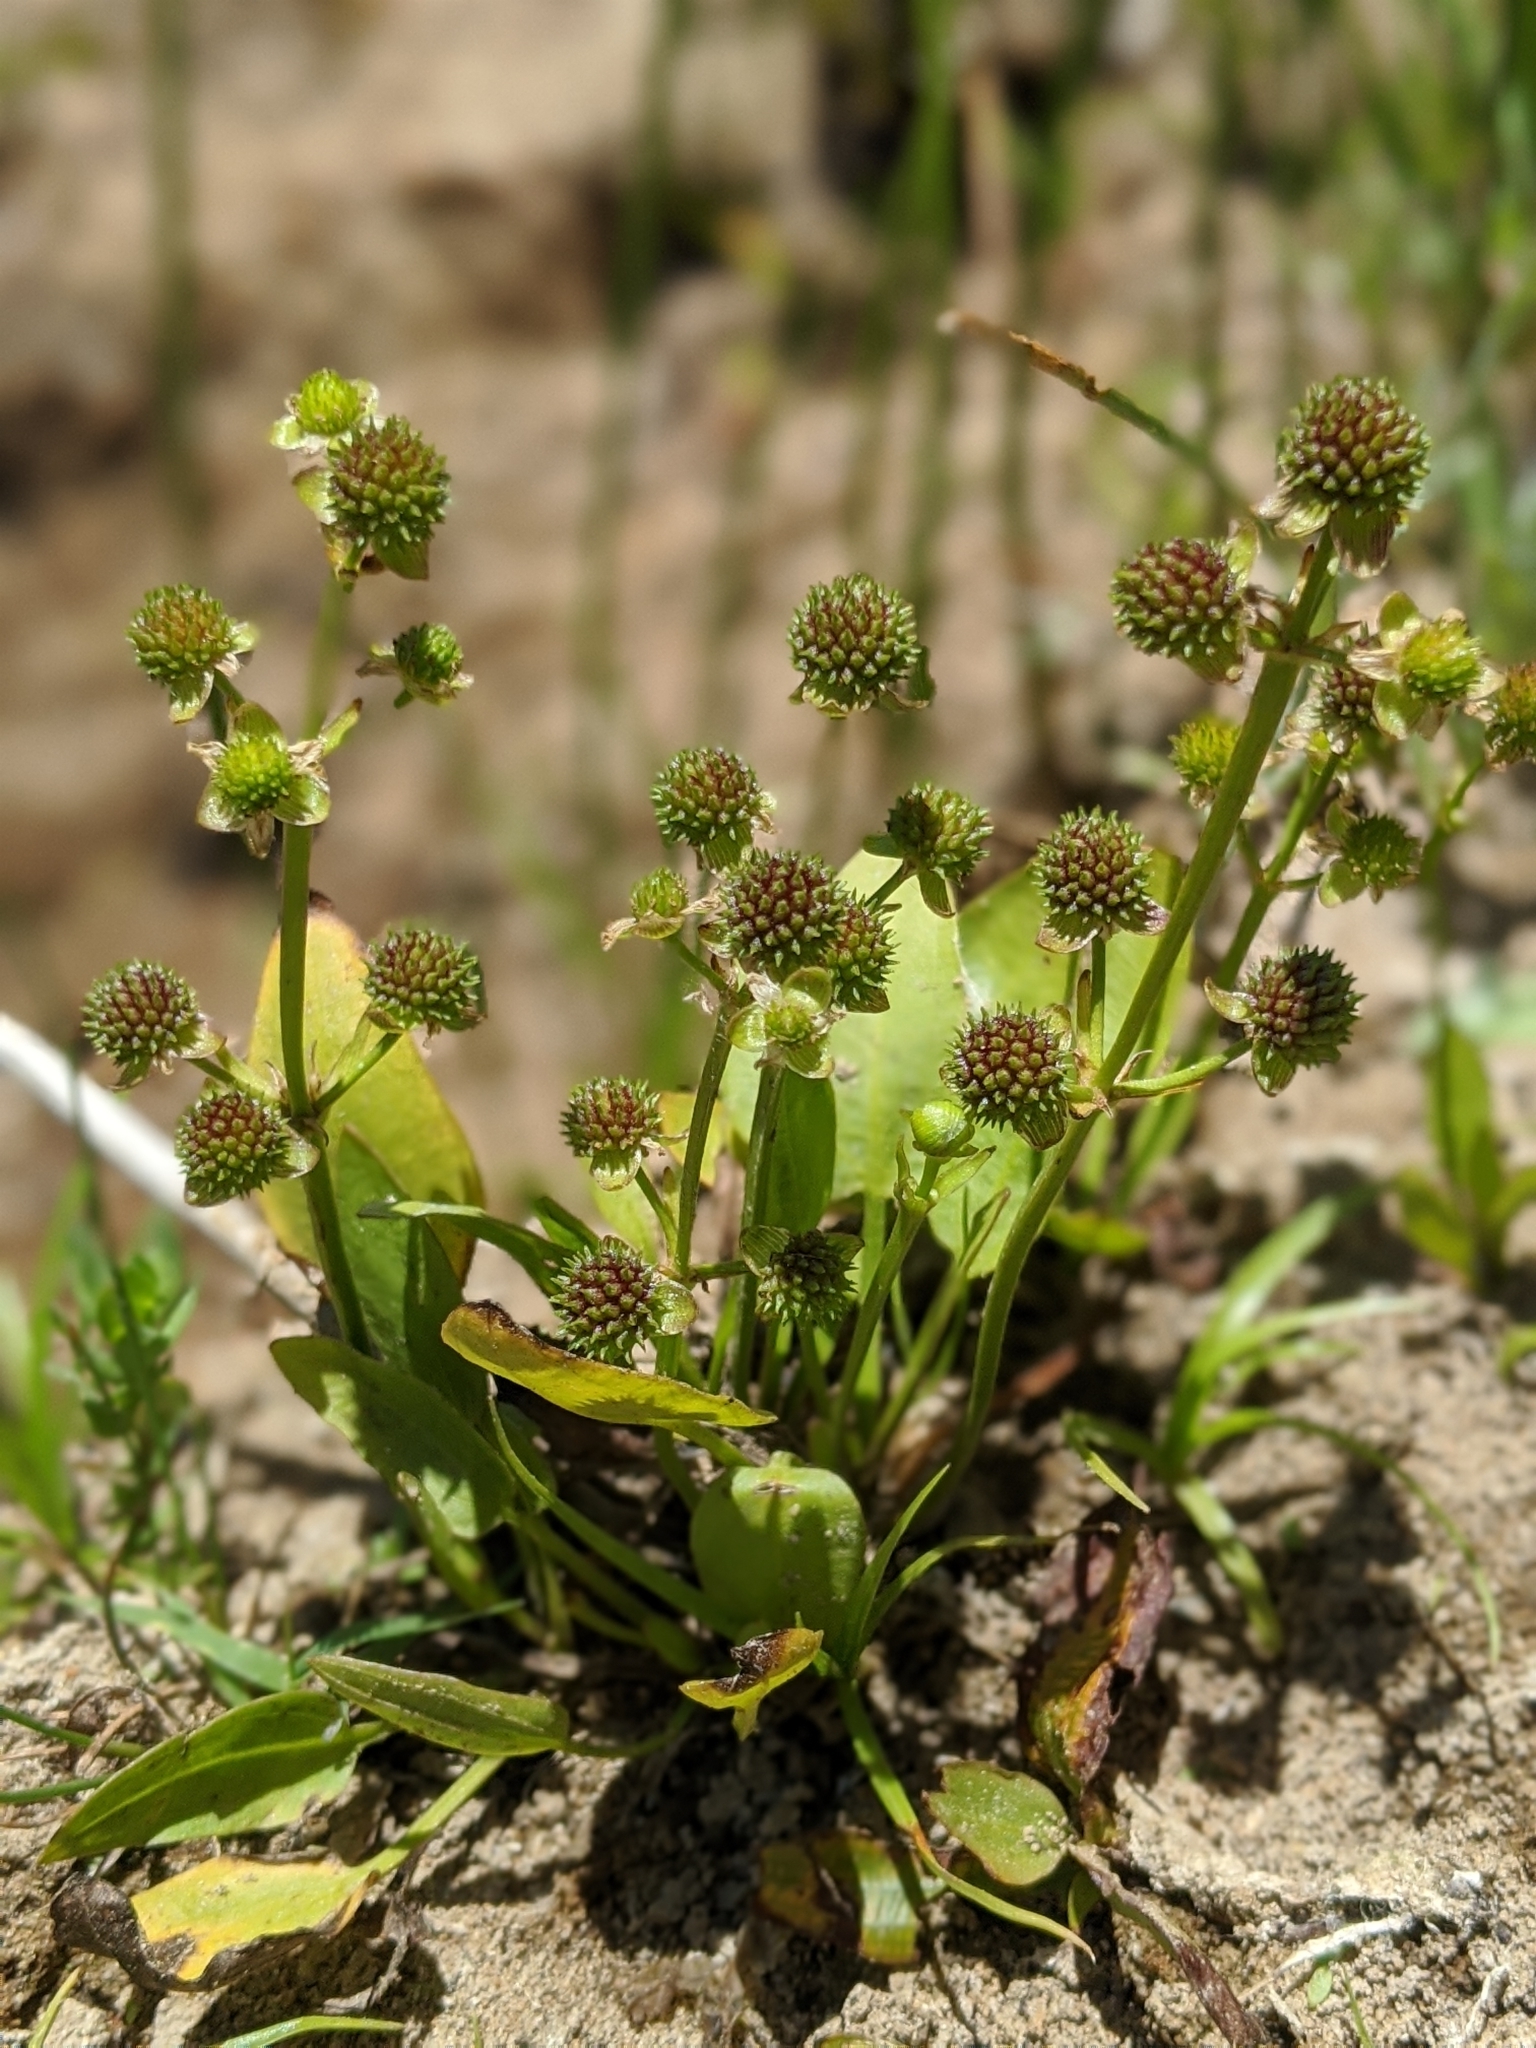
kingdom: Plantae
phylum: Tracheophyta
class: Liliopsida
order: Alismatales
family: Alismataceae
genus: Echinodorus
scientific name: Echinodorus berteroi
